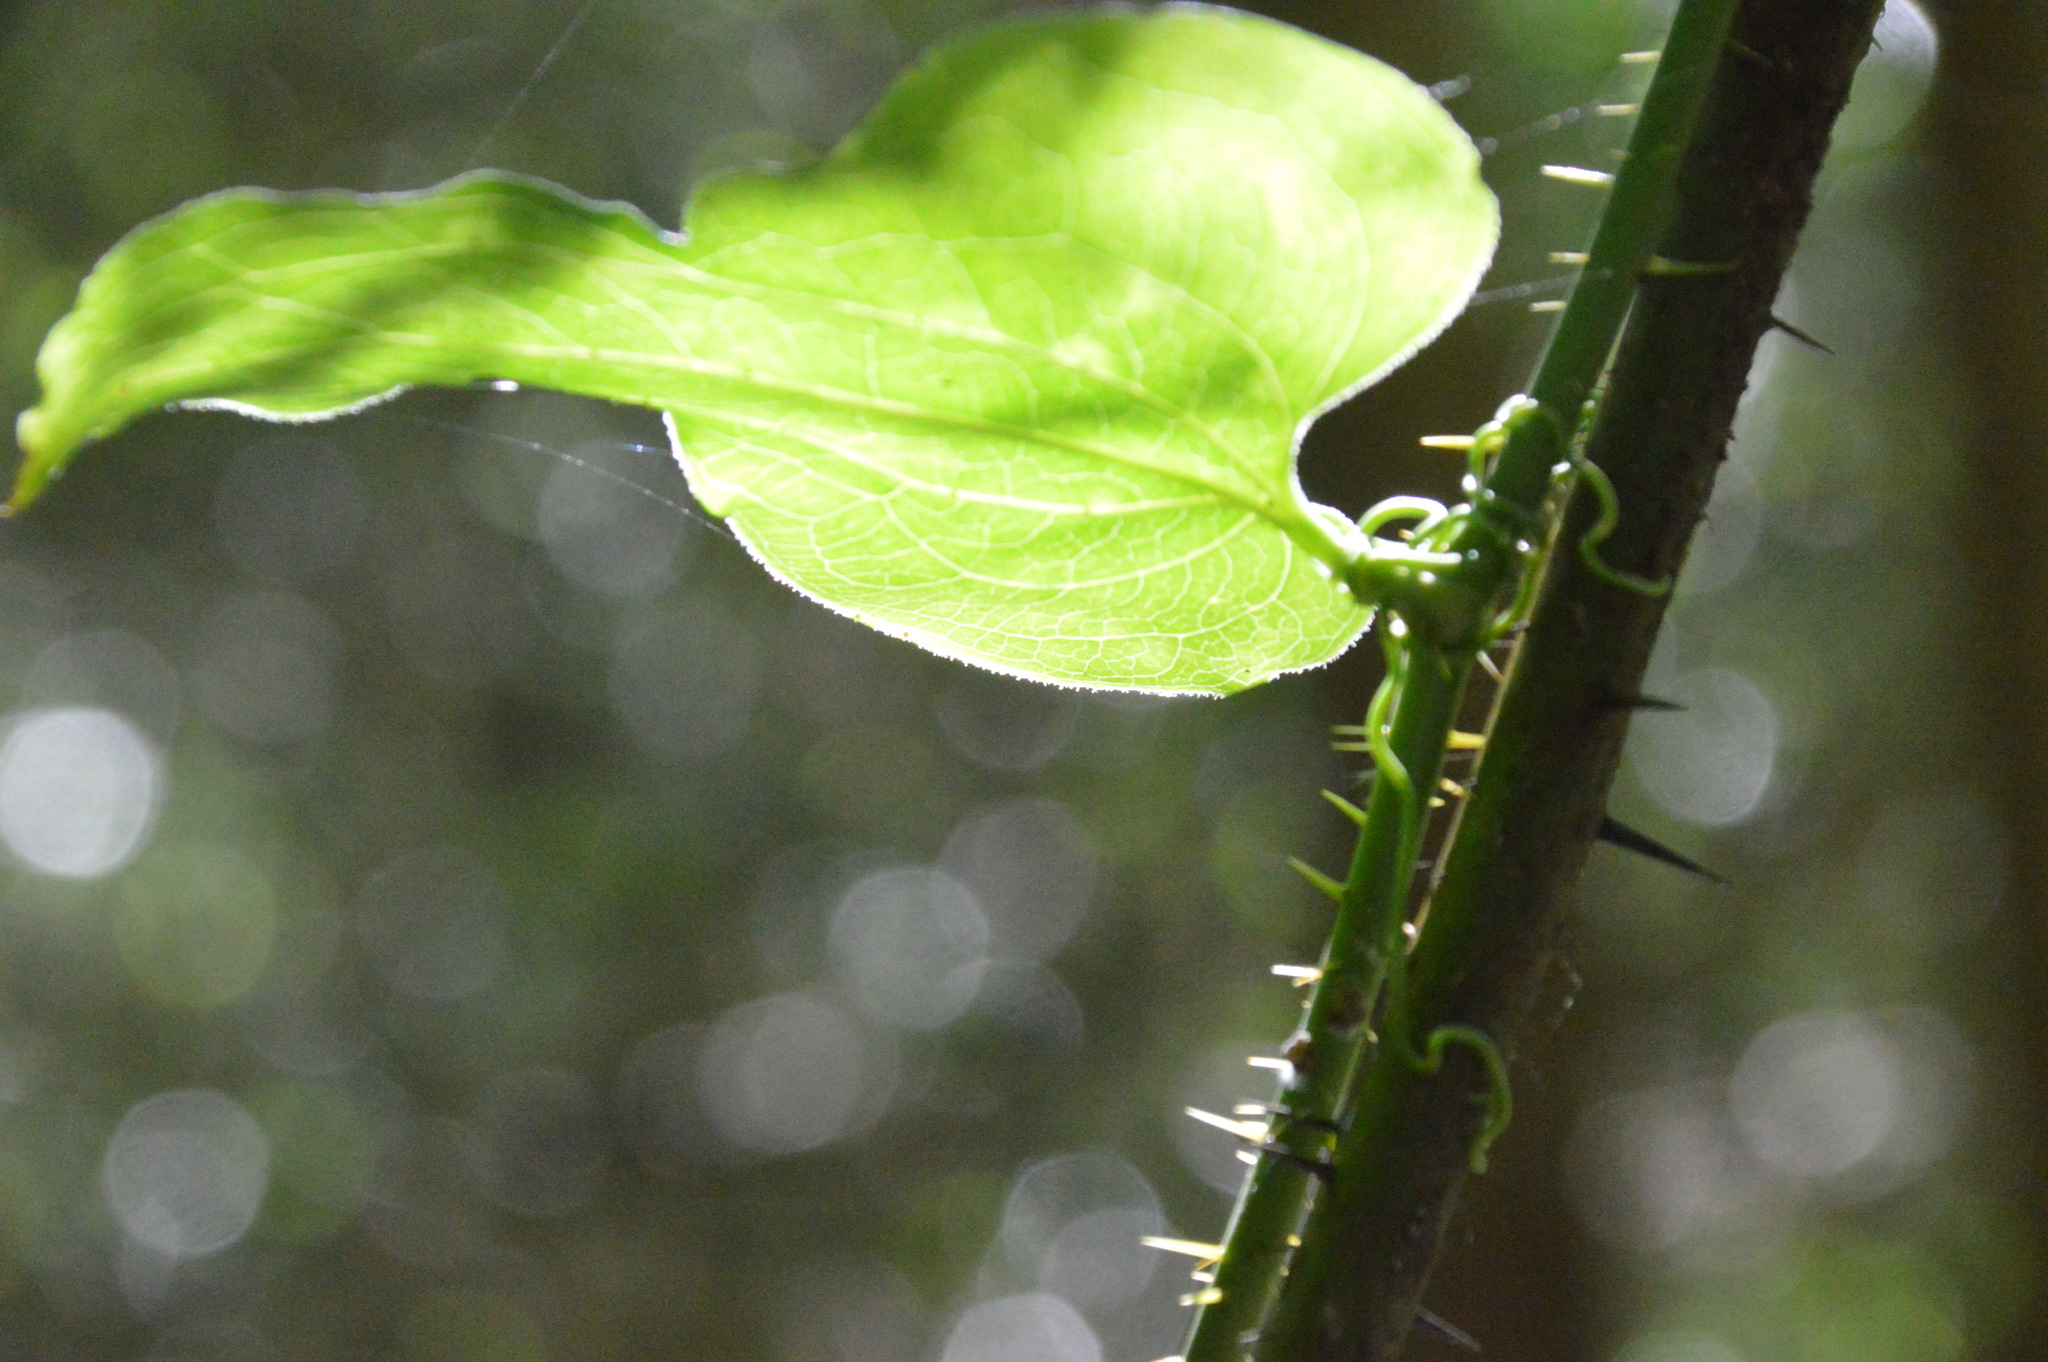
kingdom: Plantae
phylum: Tracheophyta
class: Liliopsida
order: Liliales
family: Smilacaceae
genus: Smilax
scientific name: Smilax tamnoides
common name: Hellfetter
